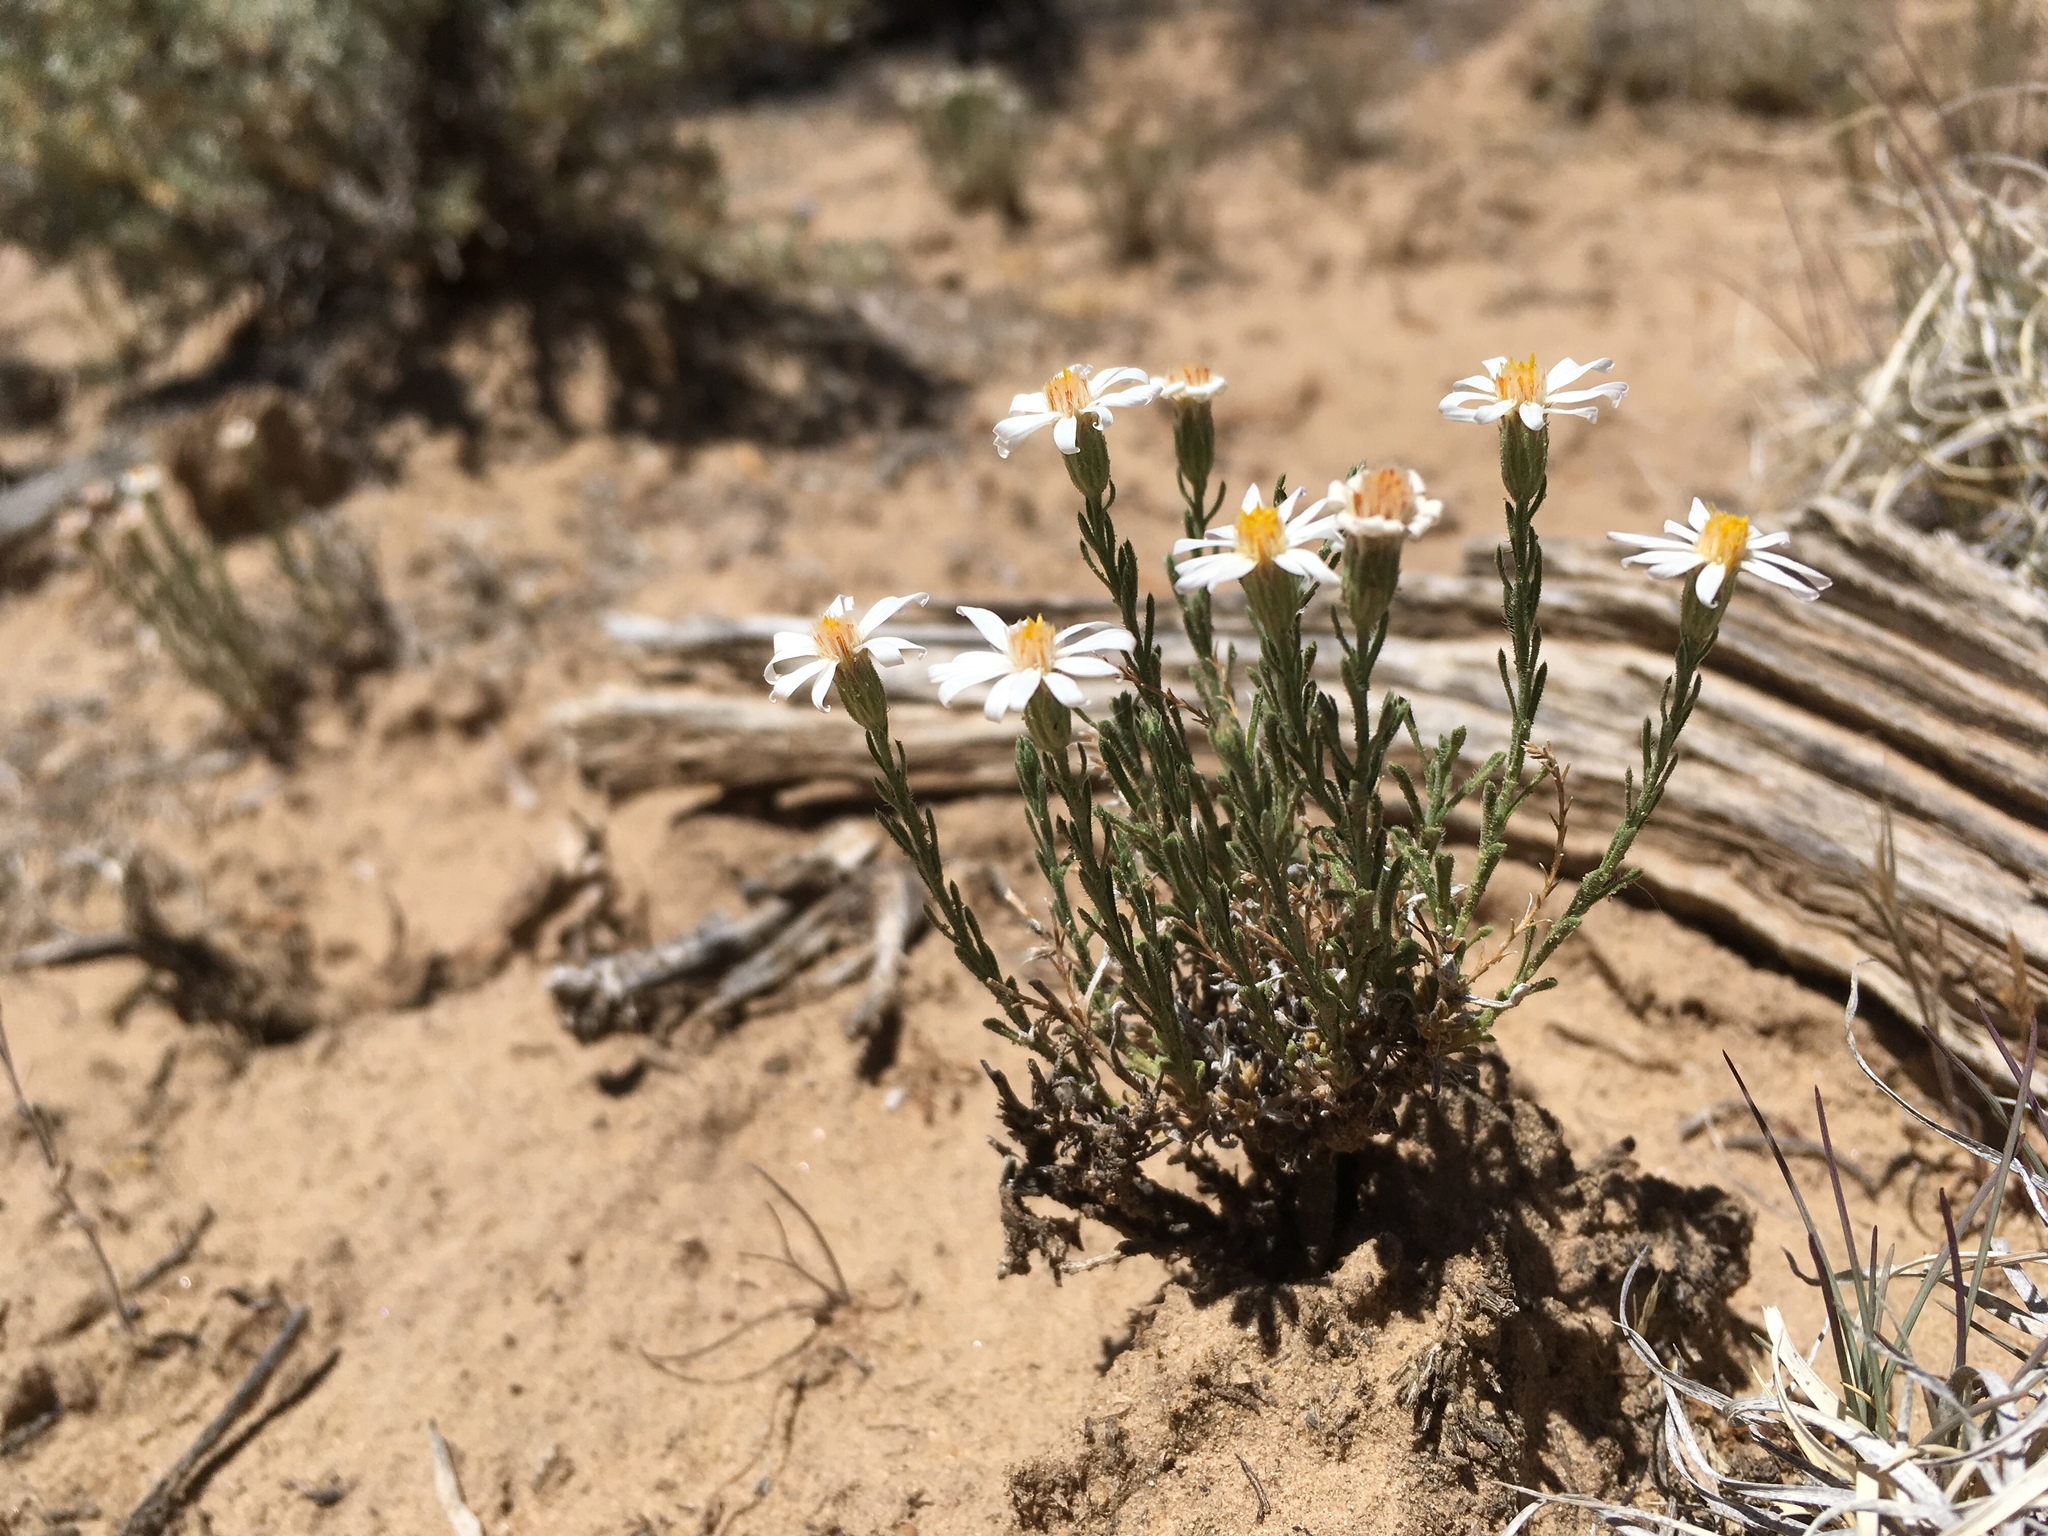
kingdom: Plantae
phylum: Tracheophyta
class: Magnoliopsida
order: Asterales
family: Asteraceae
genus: Chaetopappa
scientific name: Chaetopappa ericoides
